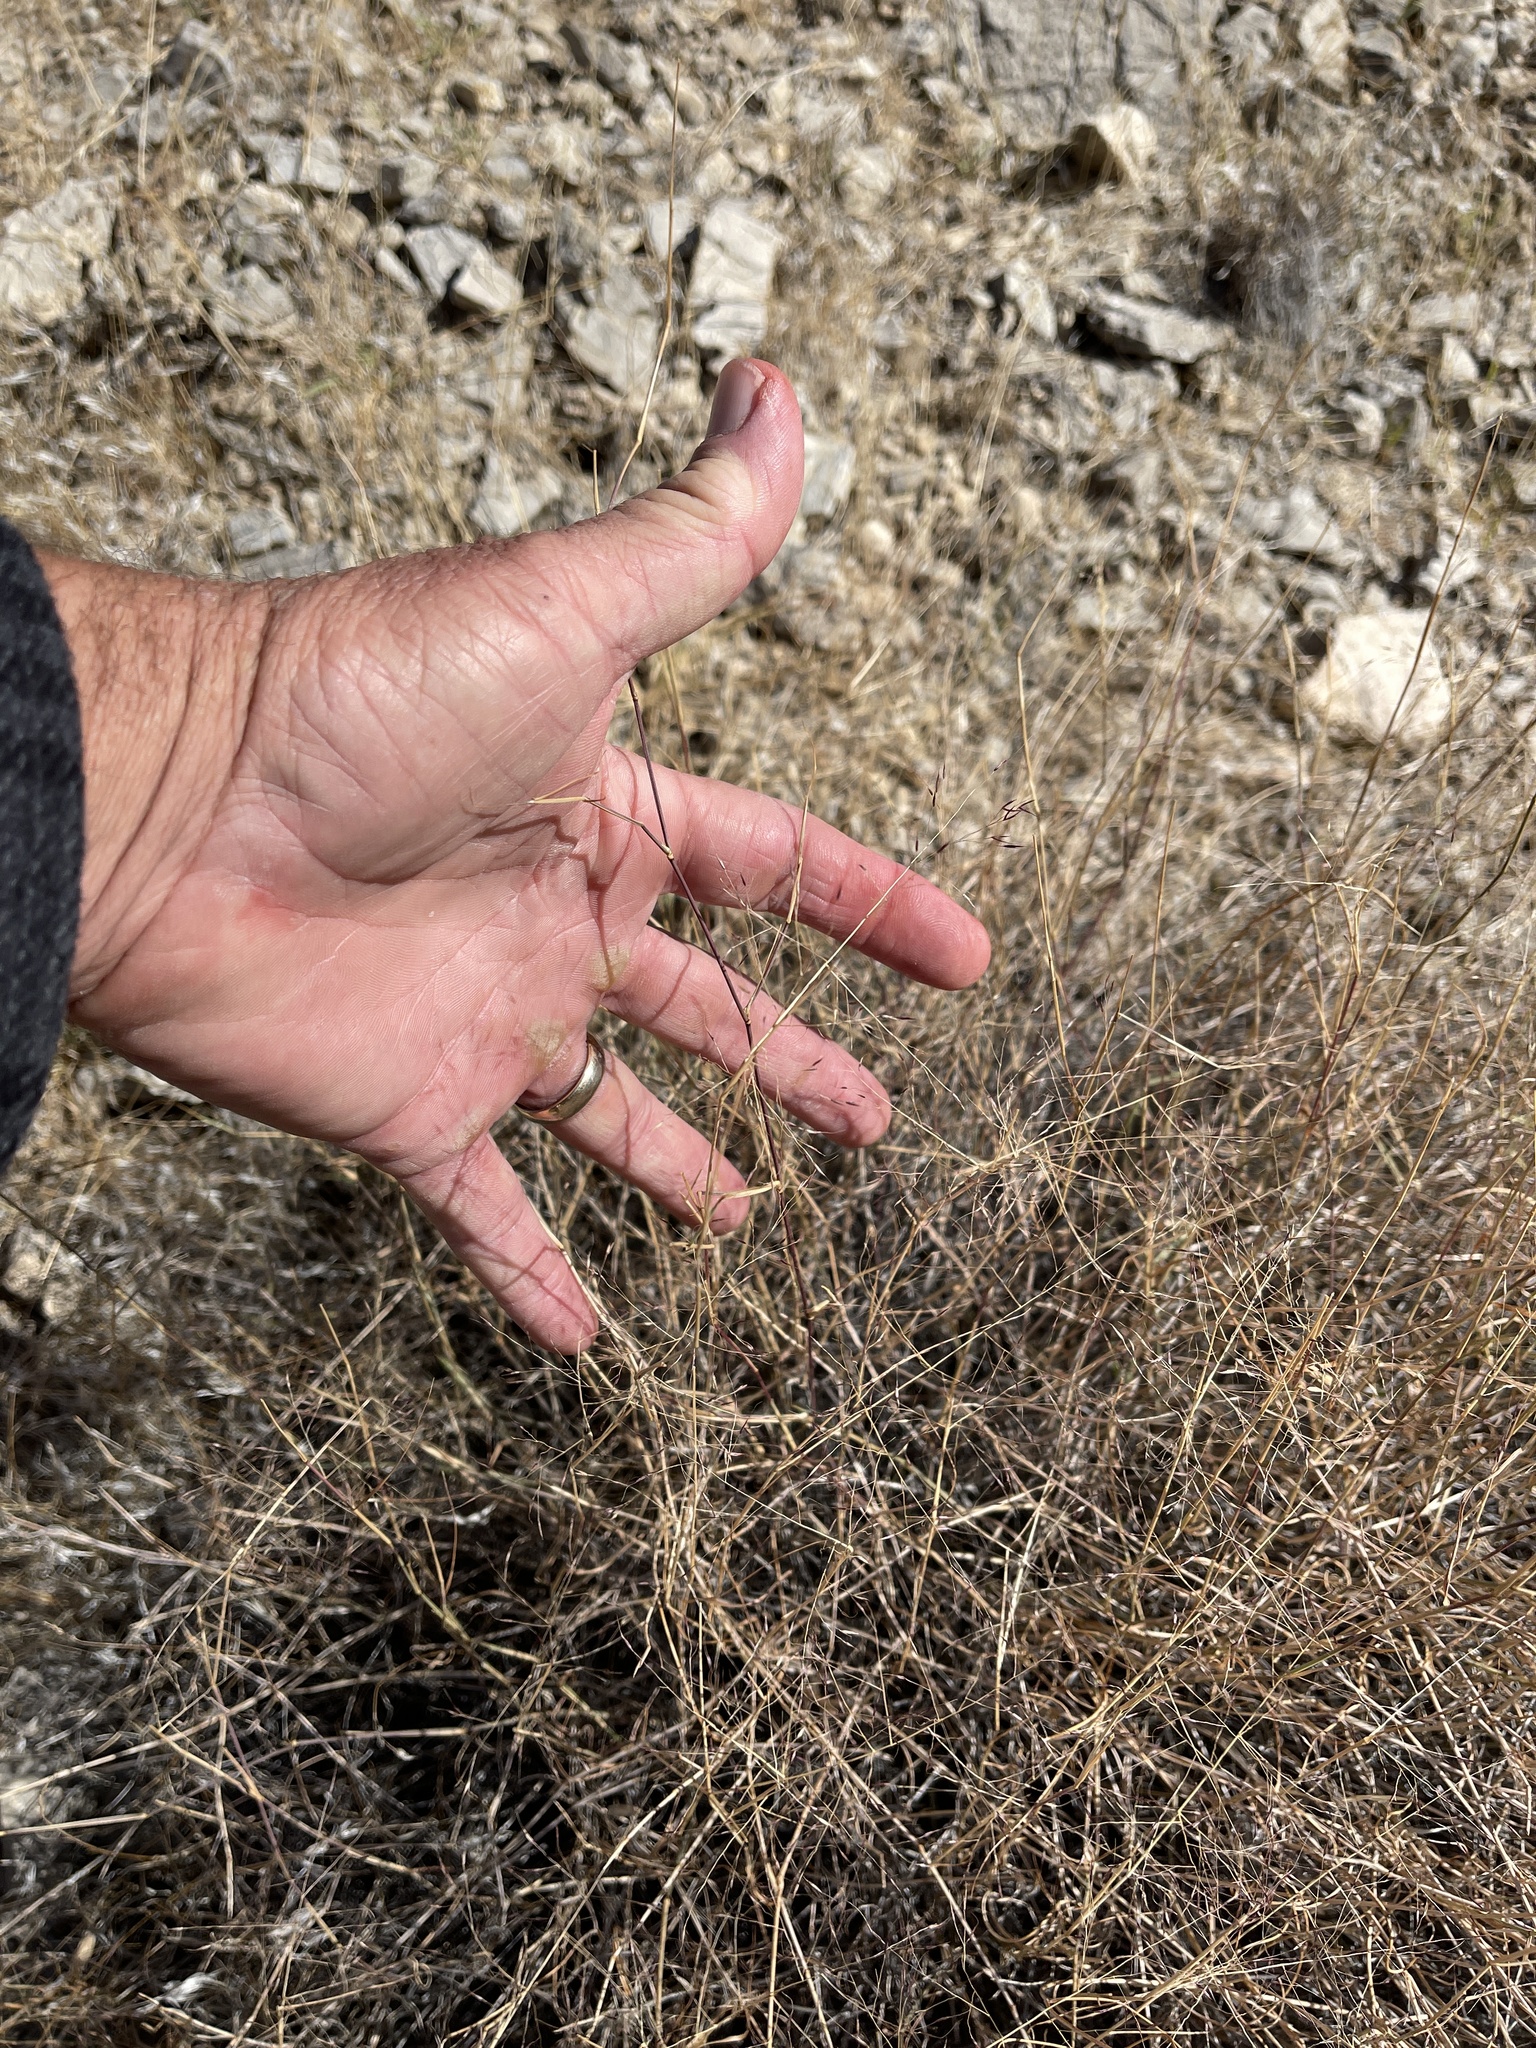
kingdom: Plantae
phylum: Tracheophyta
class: Liliopsida
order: Poales
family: Poaceae
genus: Muhlenbergia
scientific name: Muhlenbergia porteri
